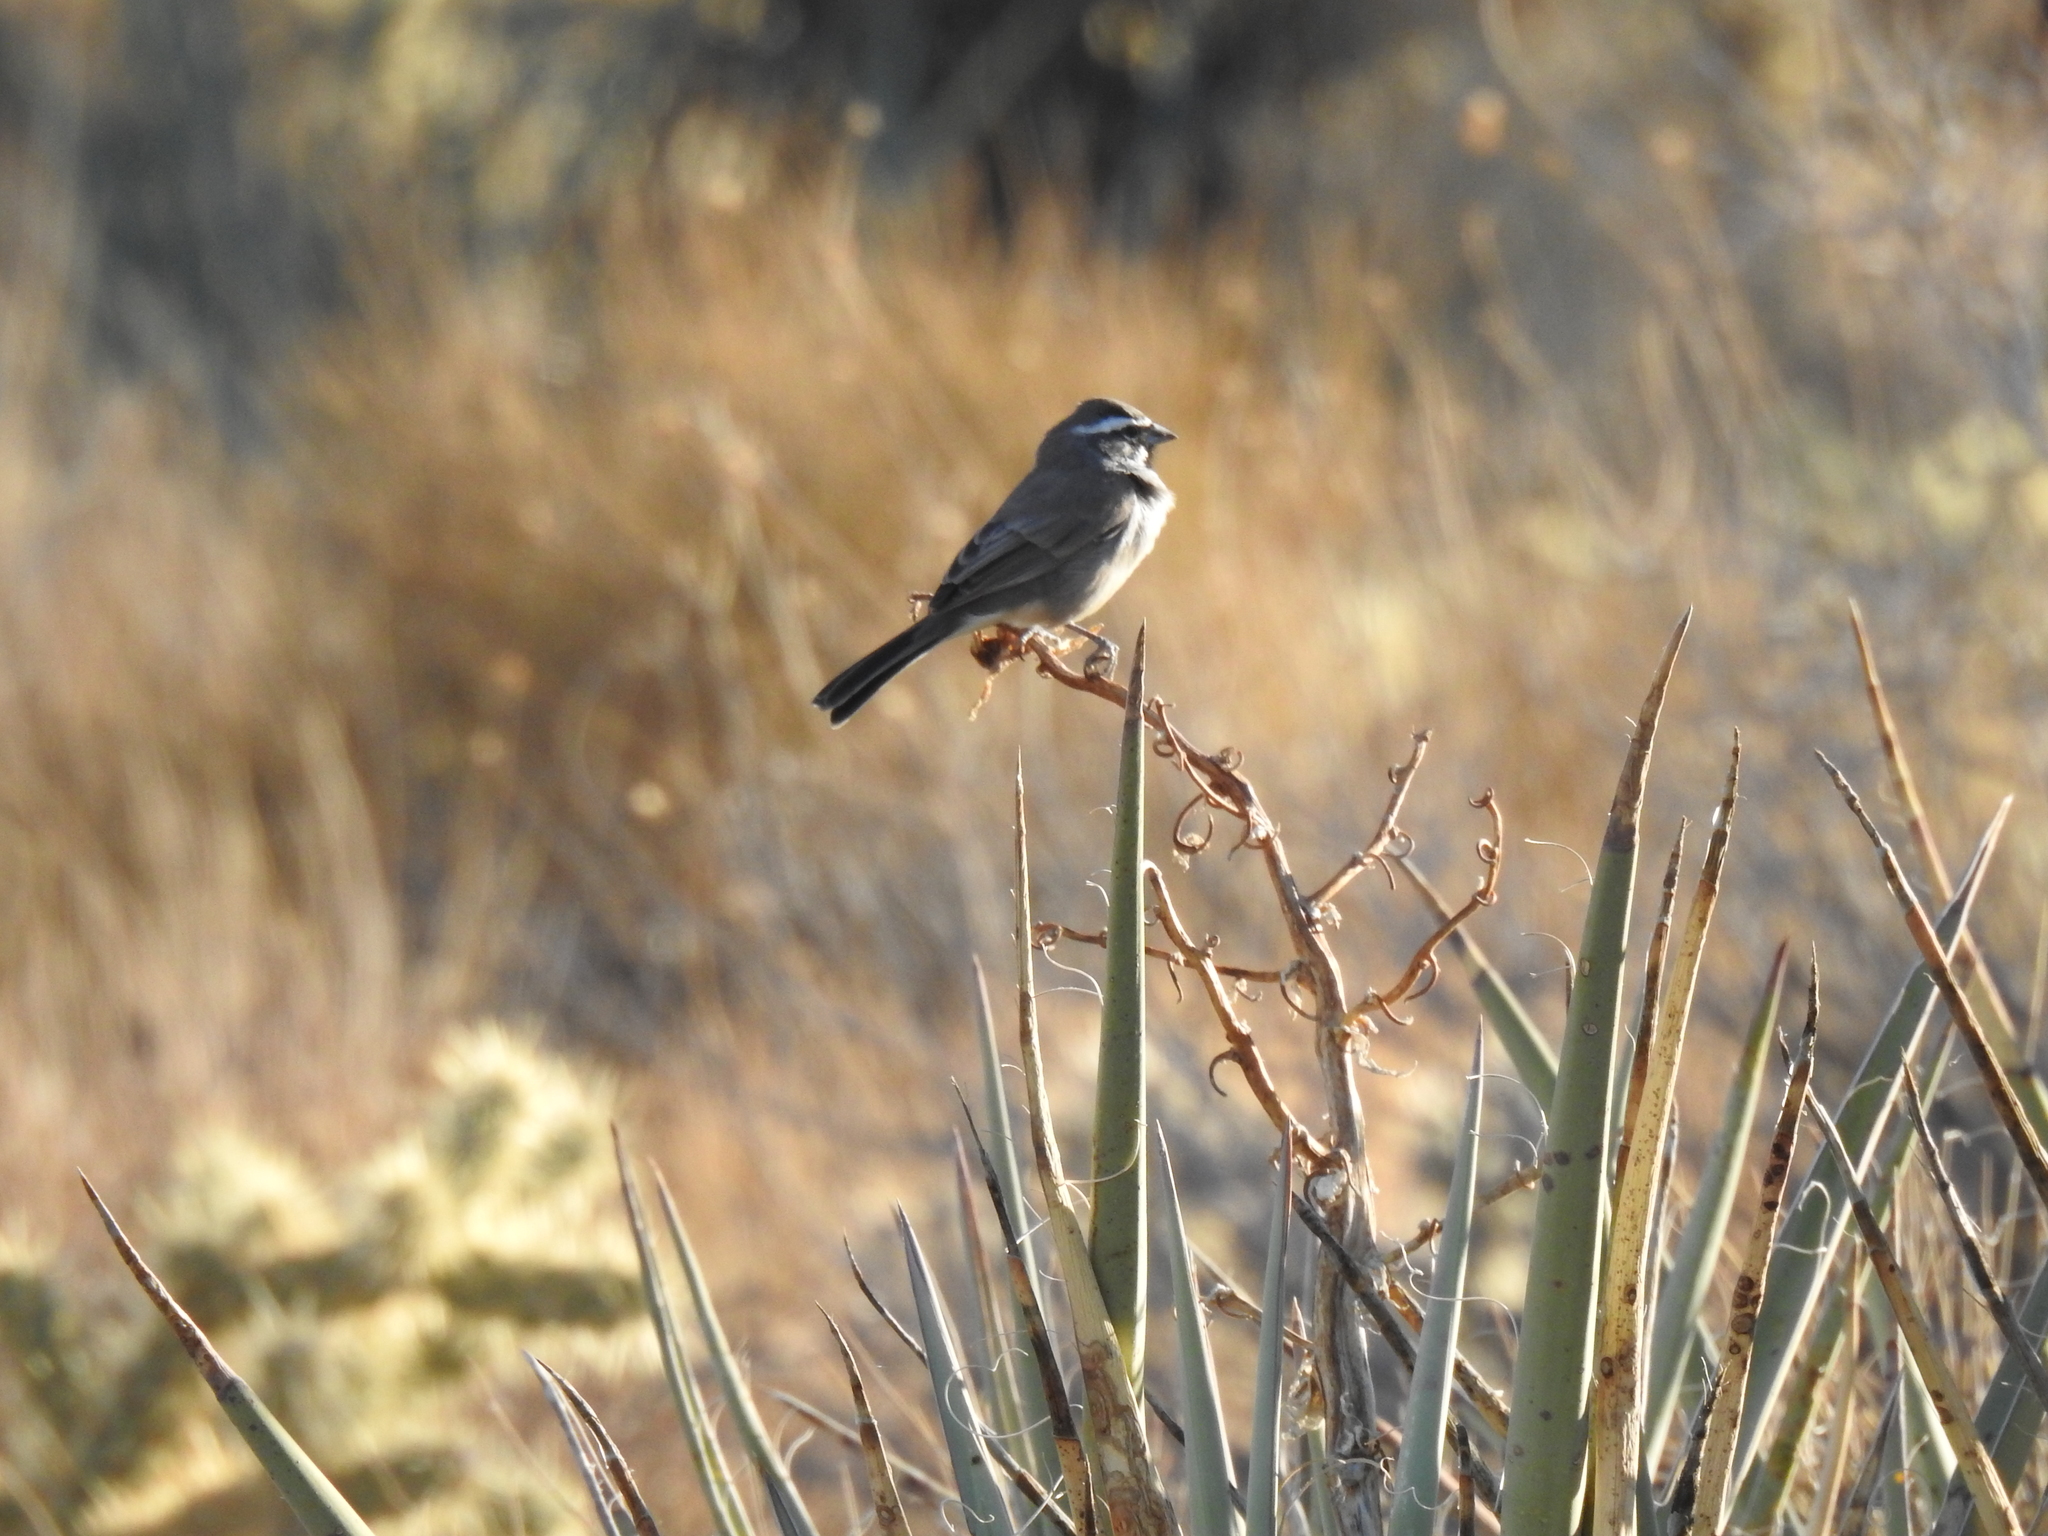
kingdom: Animalia
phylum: Chordata
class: Aves
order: Passeriformes
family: Passerellidae
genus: Amphispiza
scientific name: Amphispiza bilineata
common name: Black-throated sparrow
